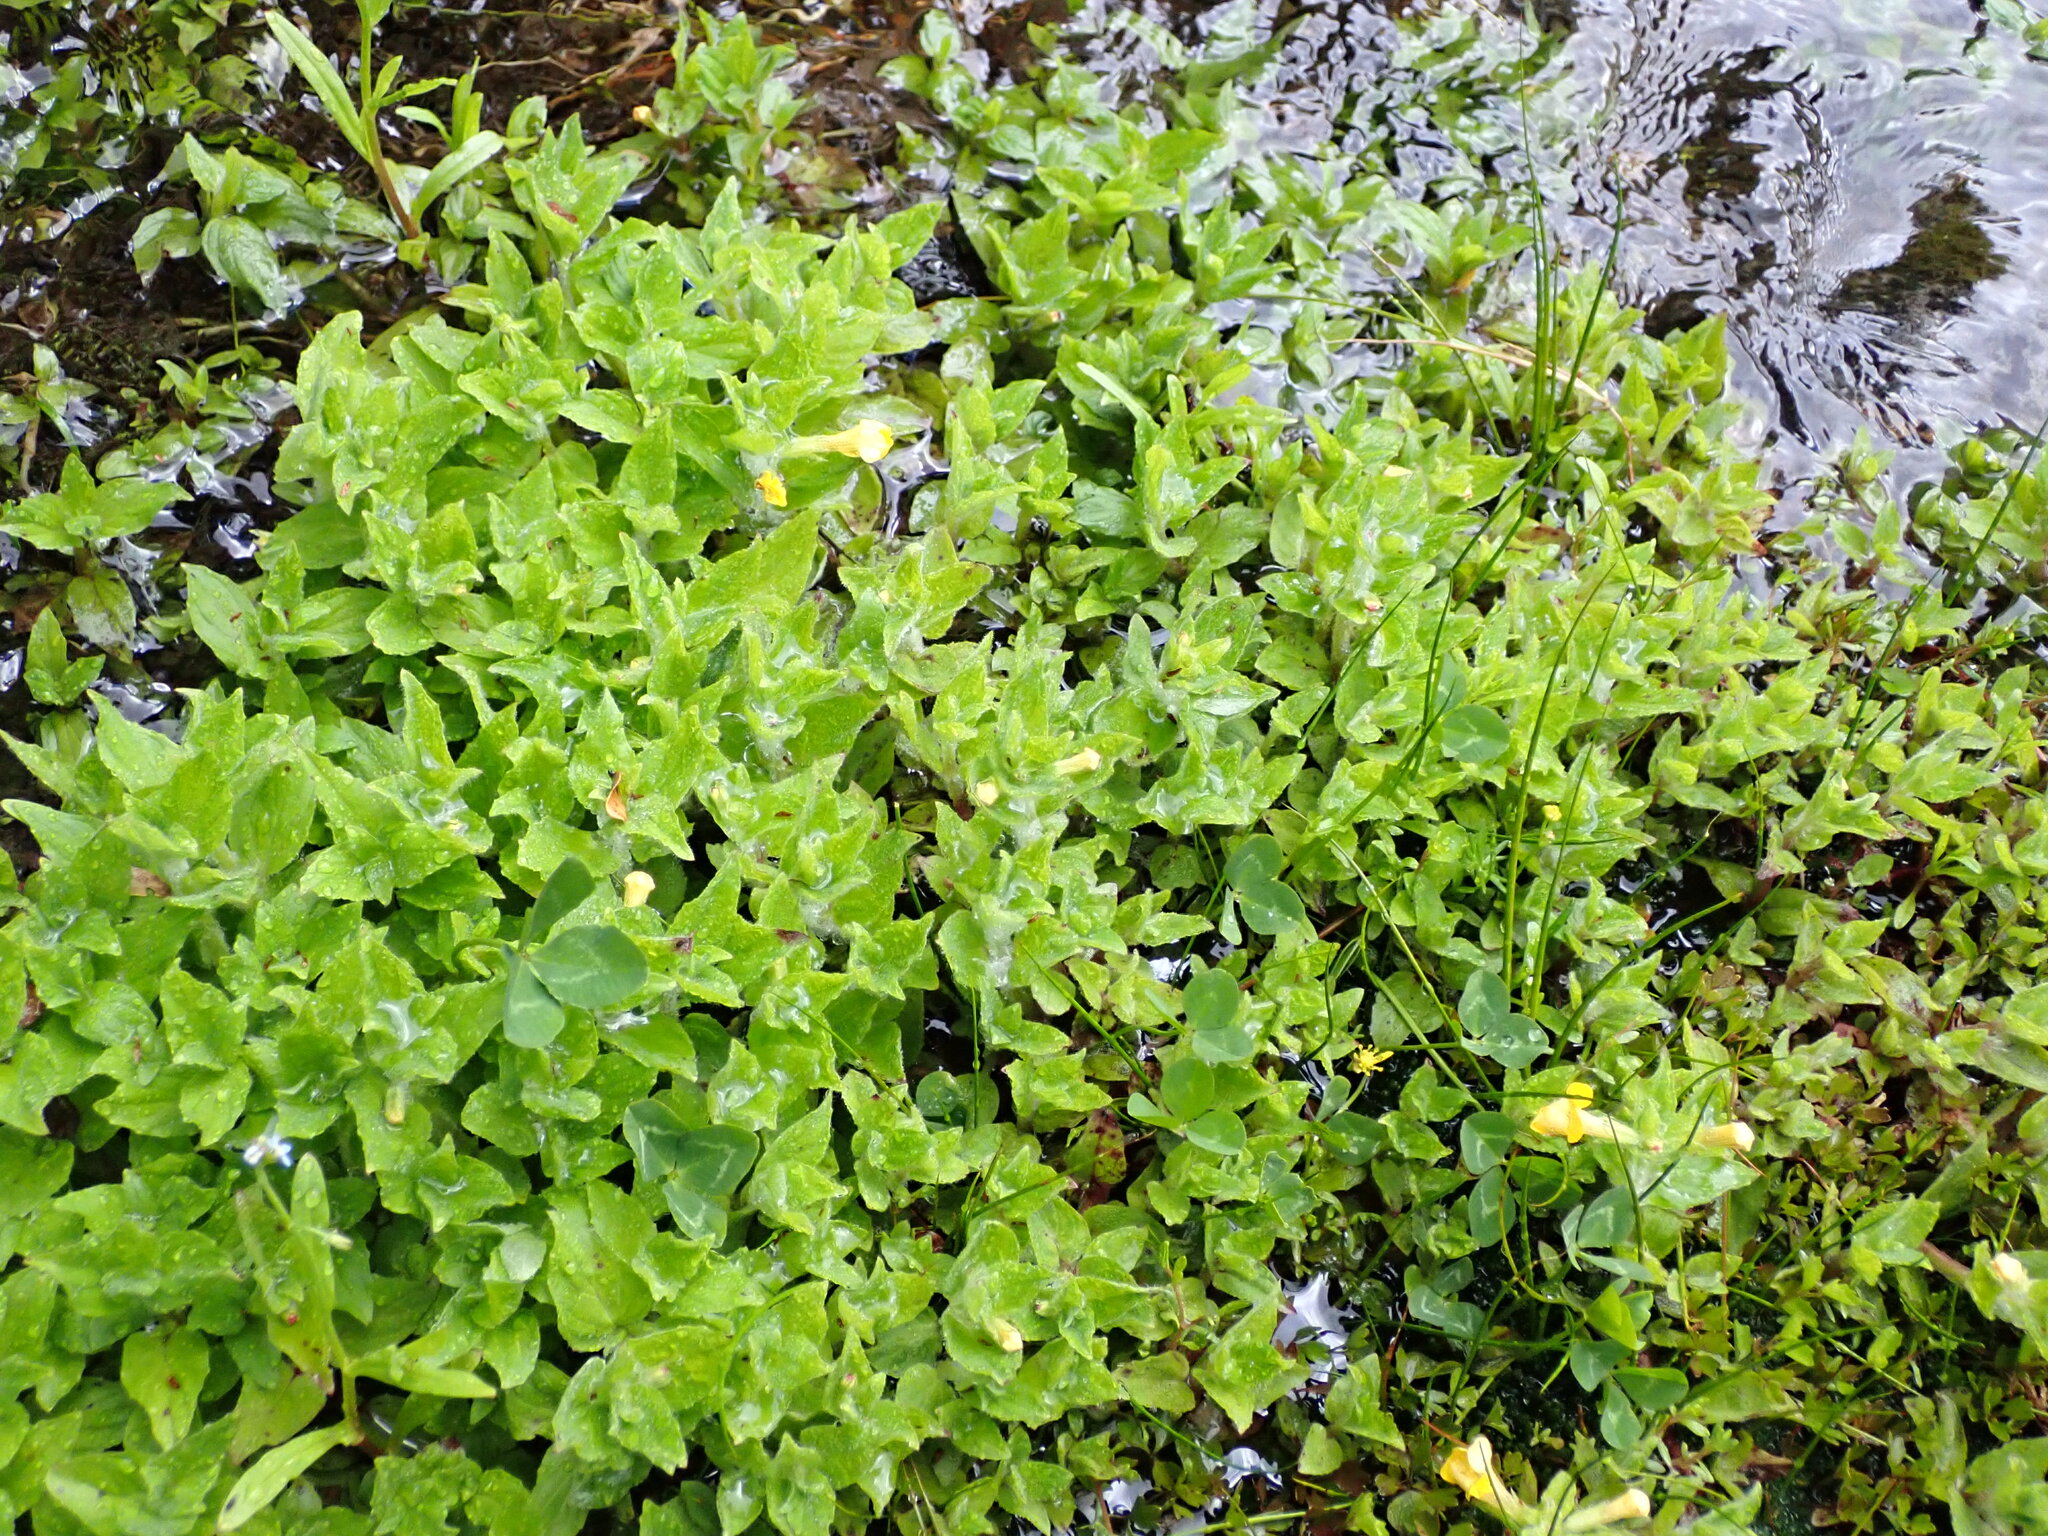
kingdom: Plantae
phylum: Tracheophyta
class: Magnoliopsida
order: Lamiales
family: Phrymaceae
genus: Erythranthe
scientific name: Erythranthe moschata
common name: Muskflower
